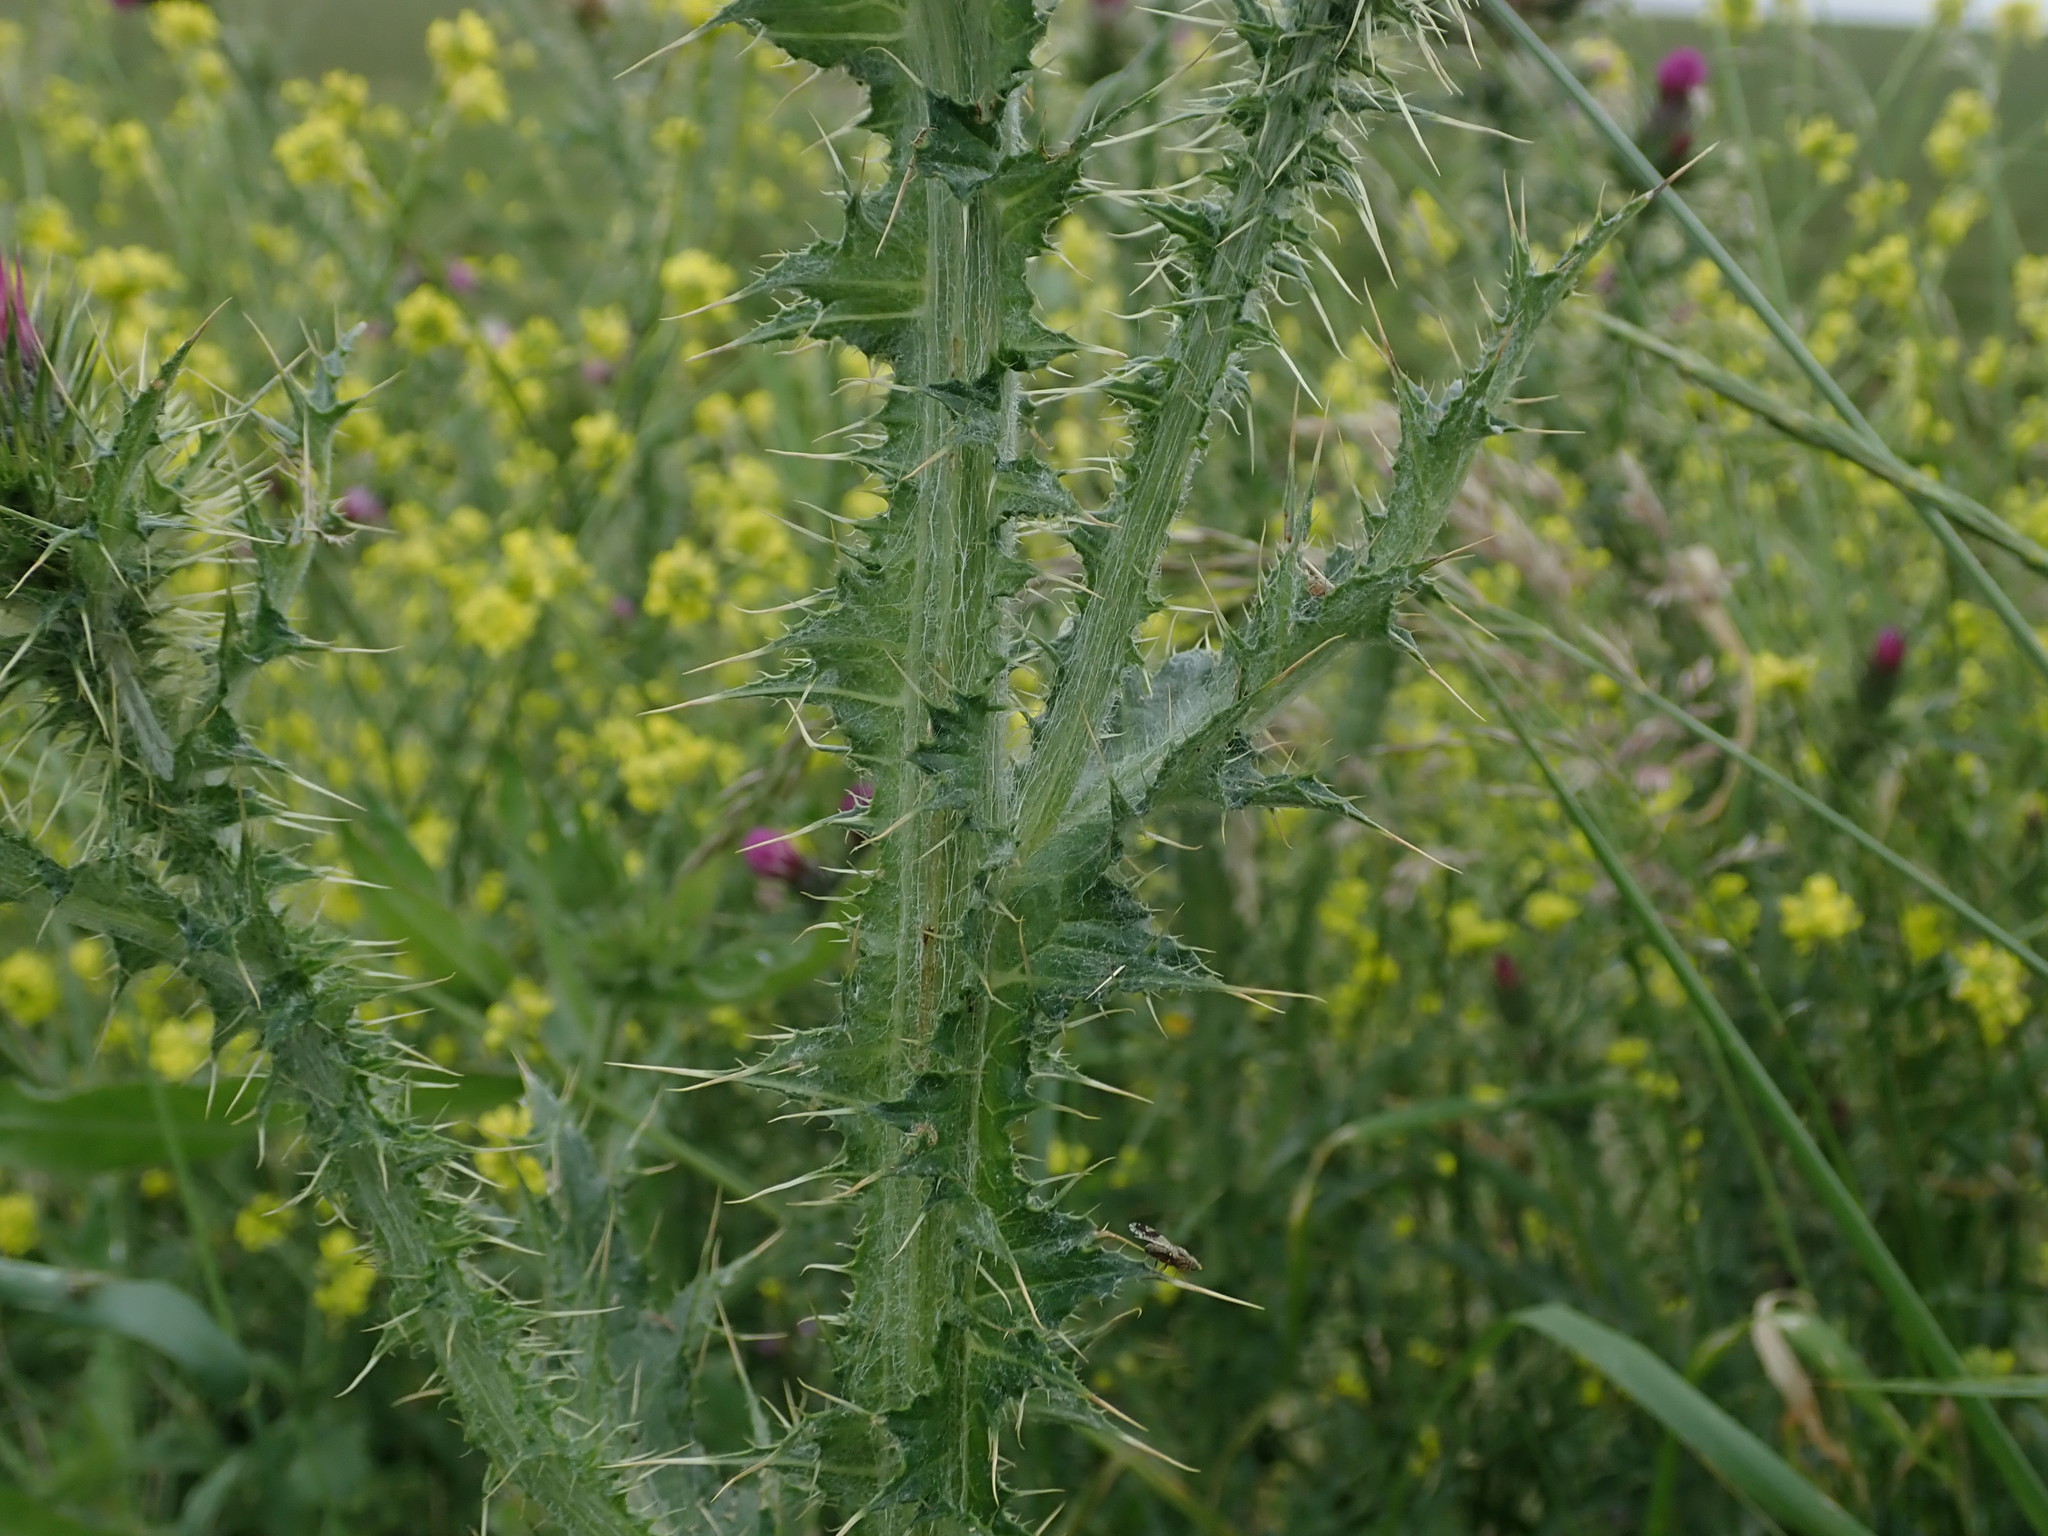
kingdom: Plantae
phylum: Tracheophyta
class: Magnoliopsida
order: Asterales
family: Asteraceae
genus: Carduus
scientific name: Carduus tenuiflorus
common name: Slender thistle
